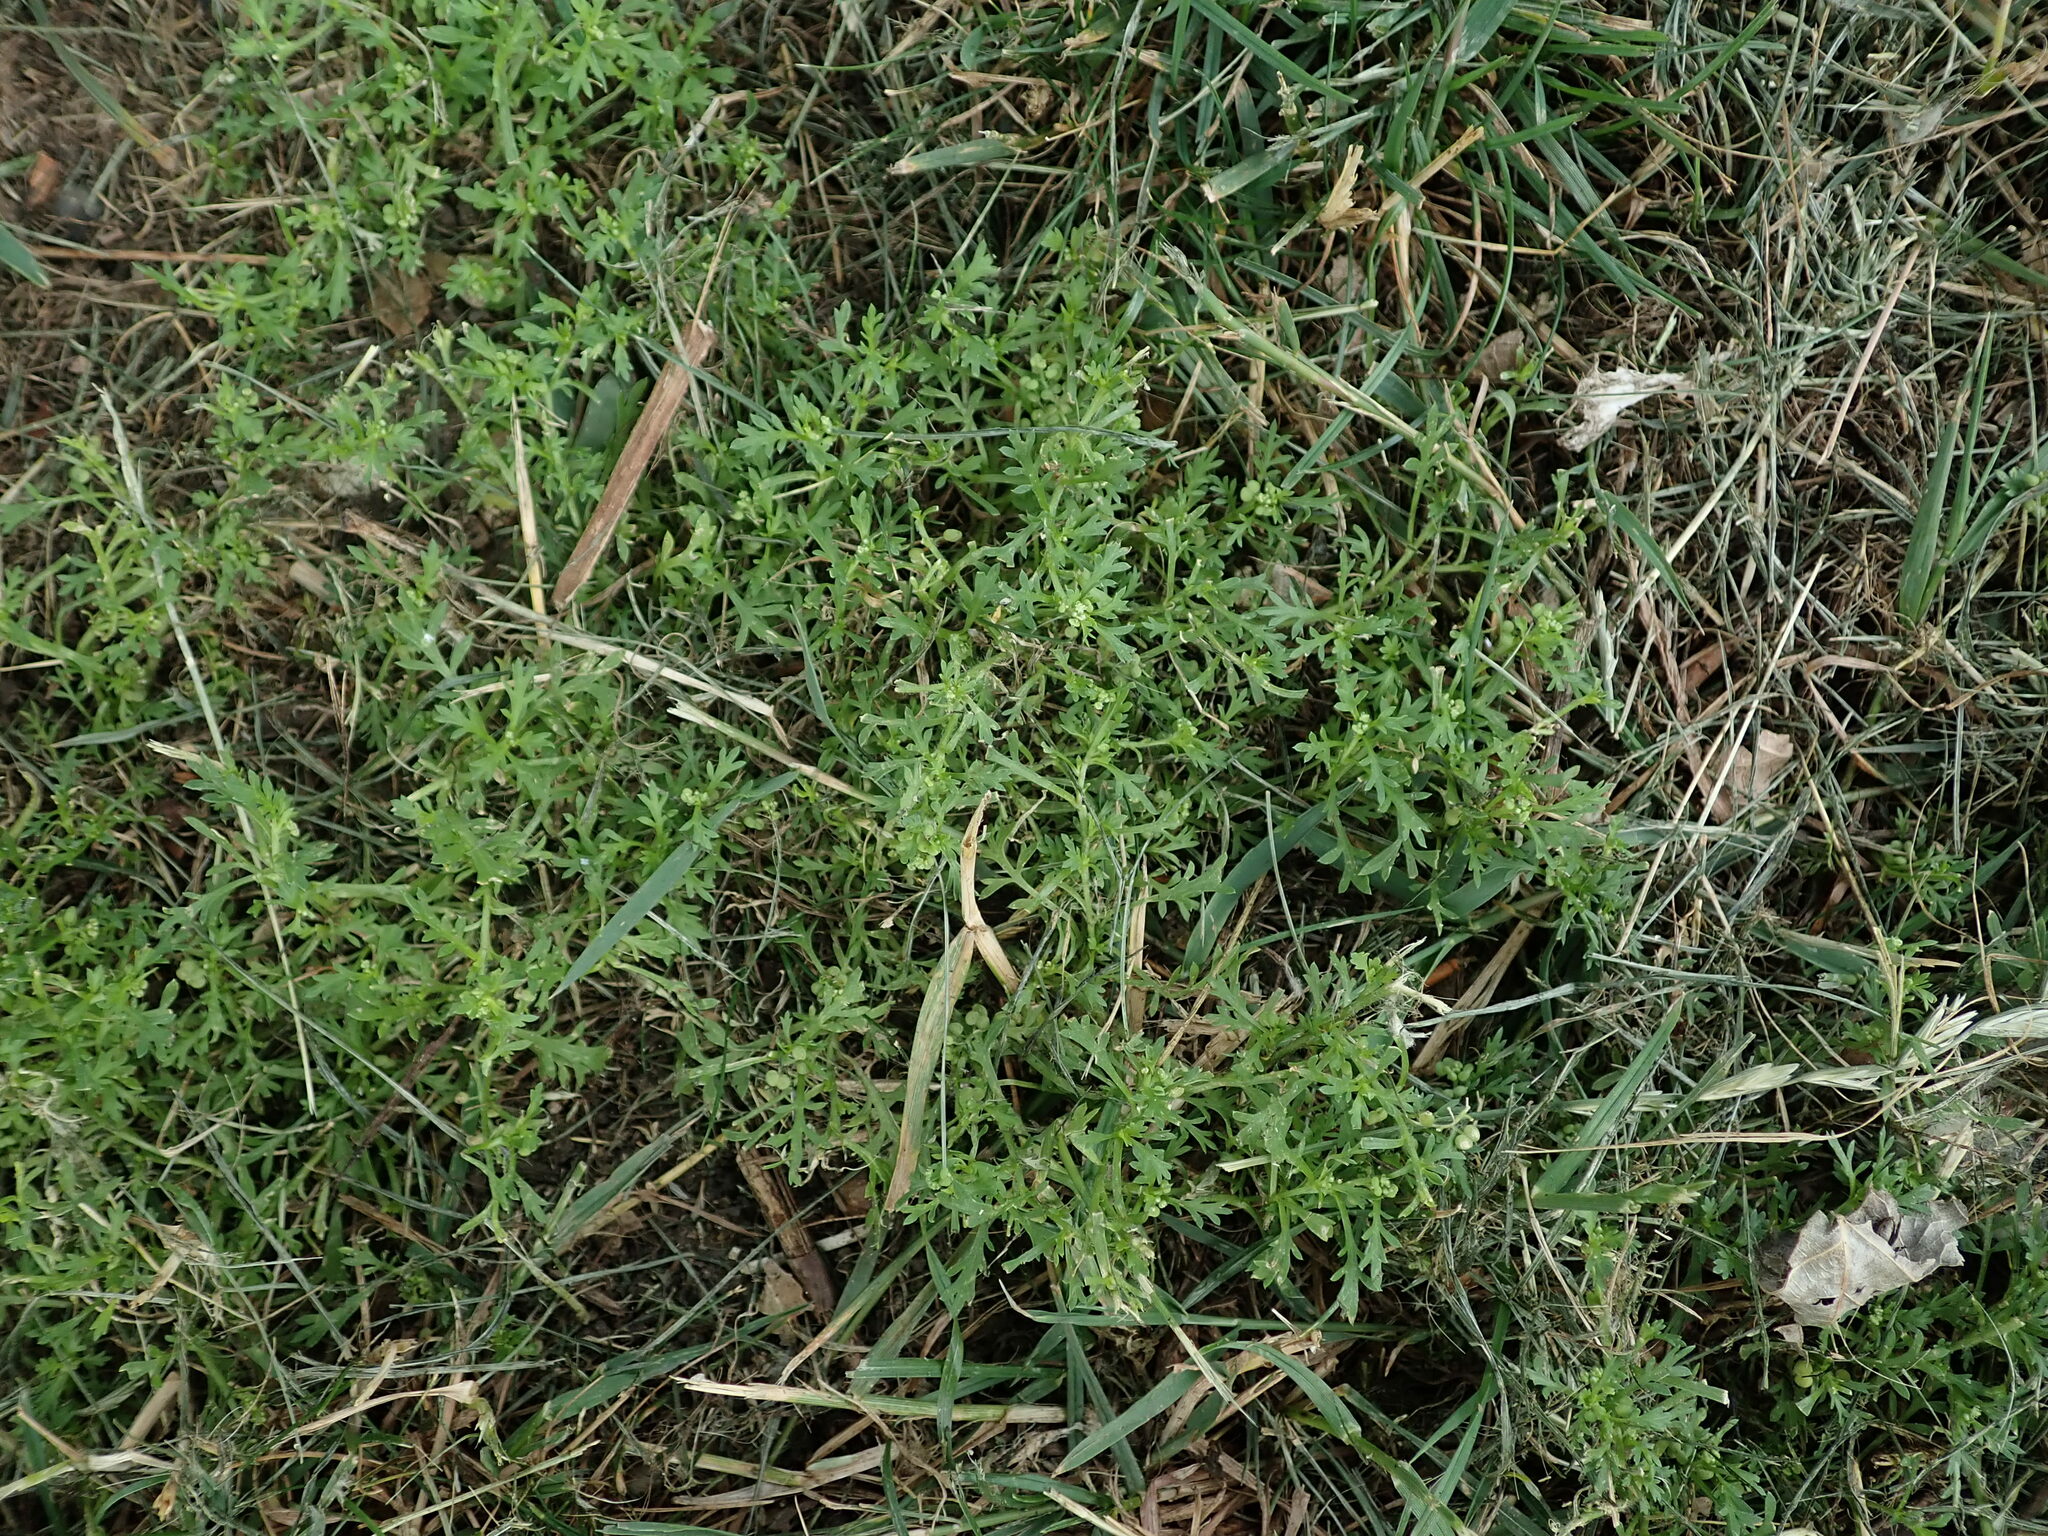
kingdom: Plantae
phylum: Tracheophyta
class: Magnoliopsida
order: Brassicales
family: Brassicaceae
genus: Lepidium
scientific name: Lepidium didymum
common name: Lesser swinecress
